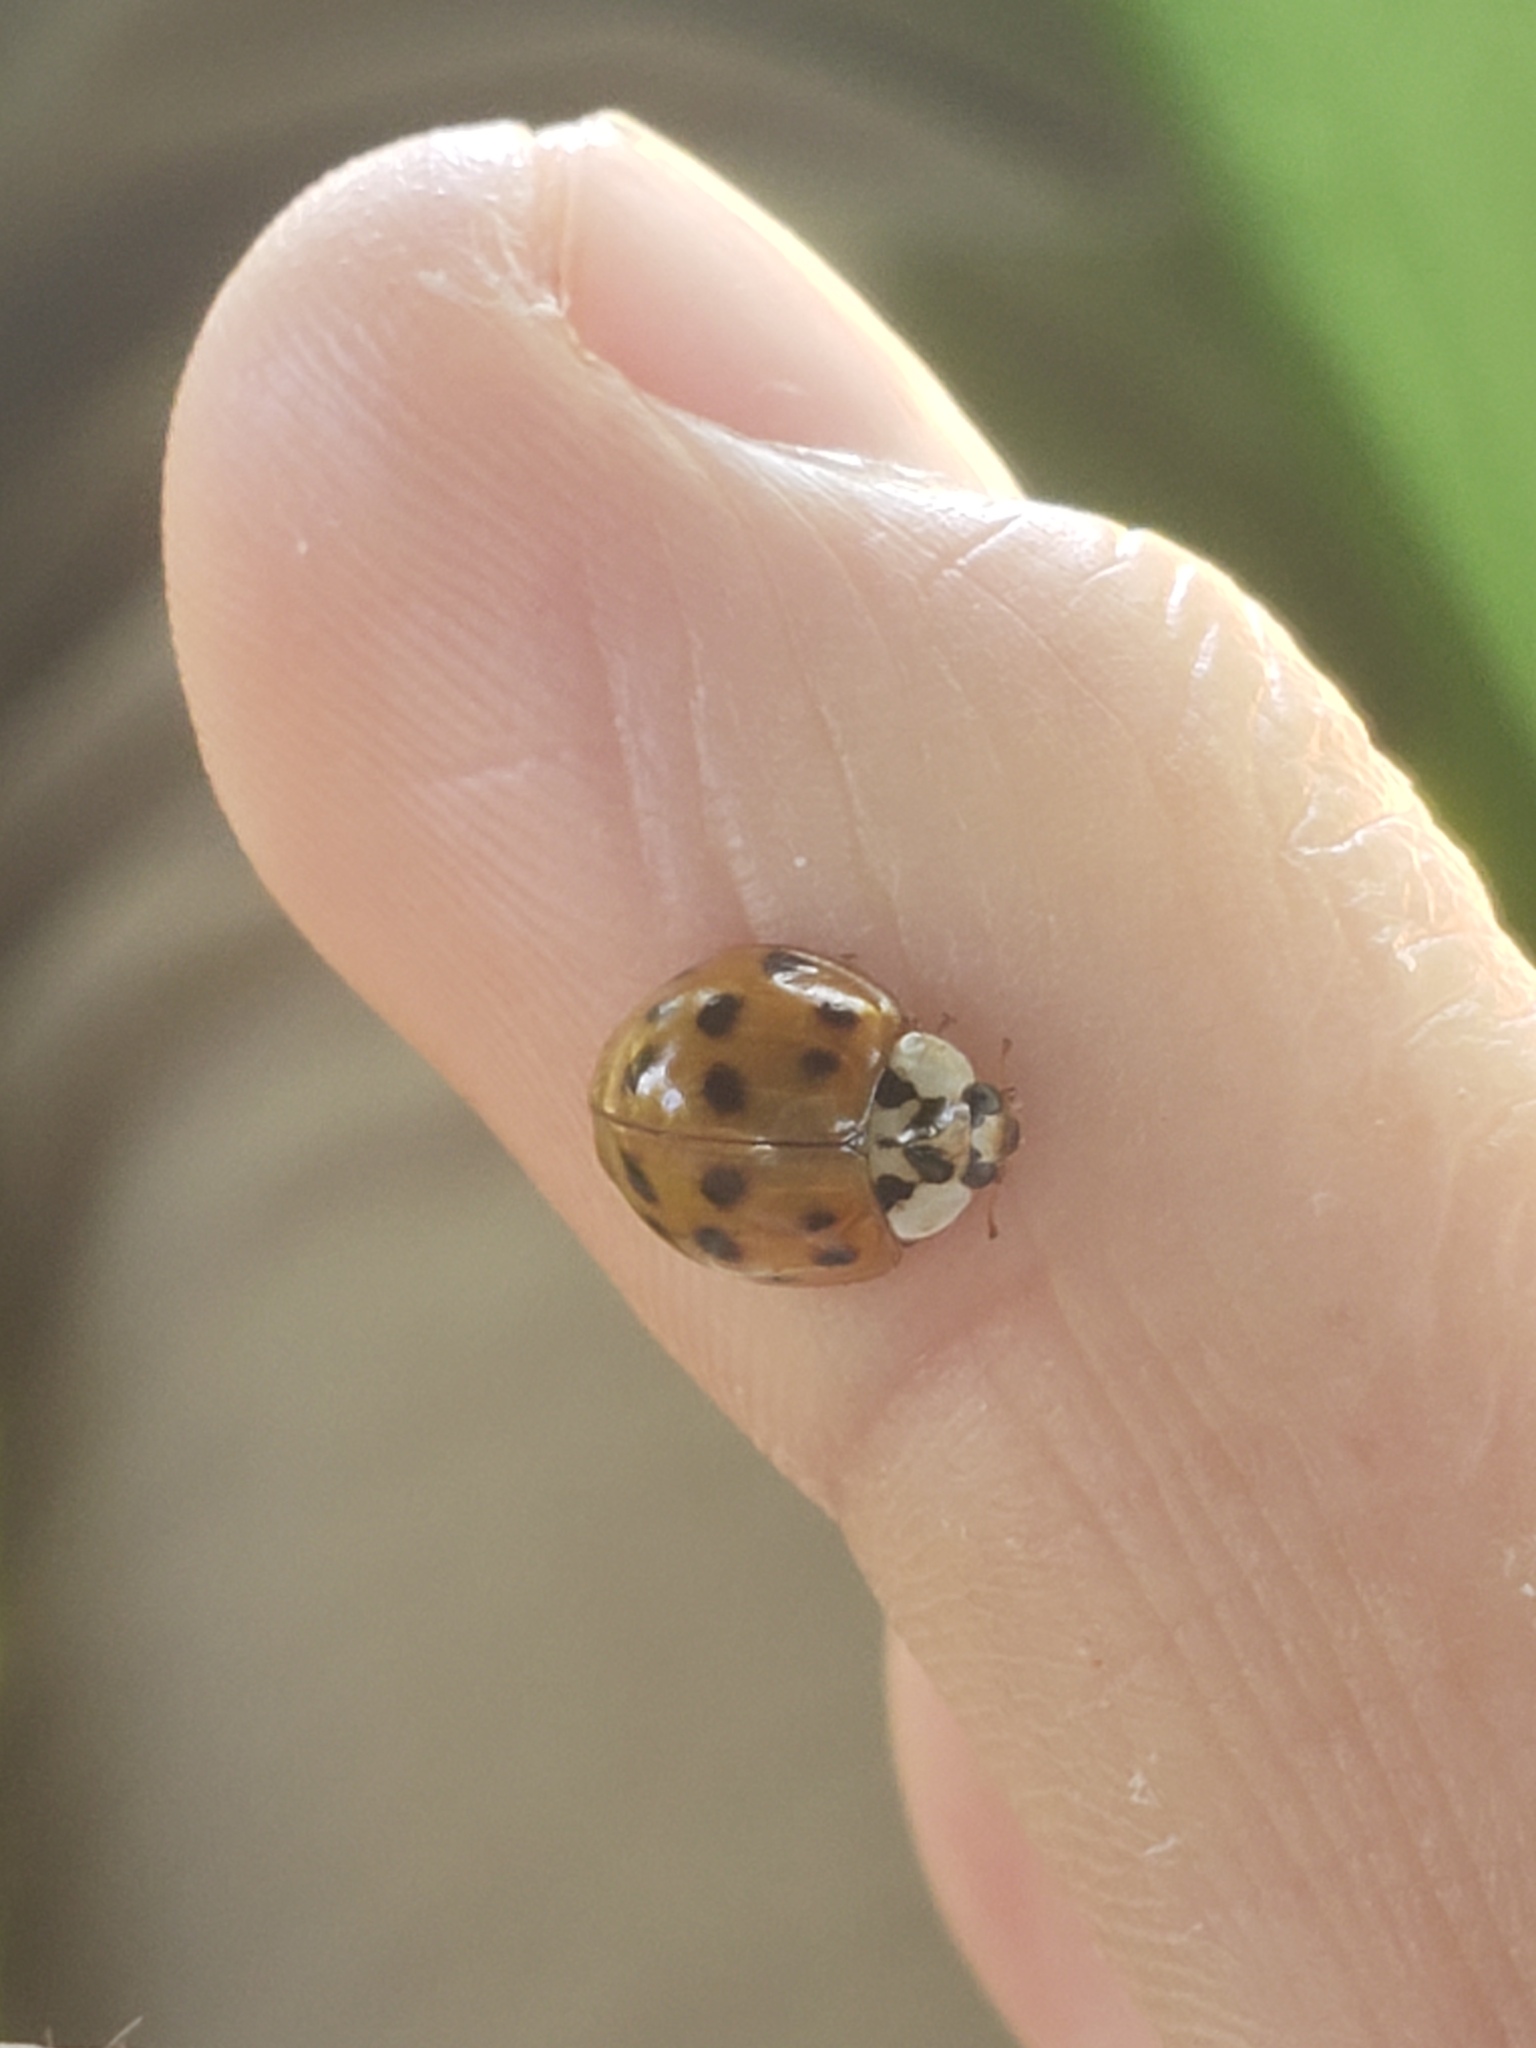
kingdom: Animalia
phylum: Arthropoda
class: Insecta
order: Coleoptera
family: Coccinellidae
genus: Harmonia
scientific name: Harmonia axyridis
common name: Harlequin ladybird
